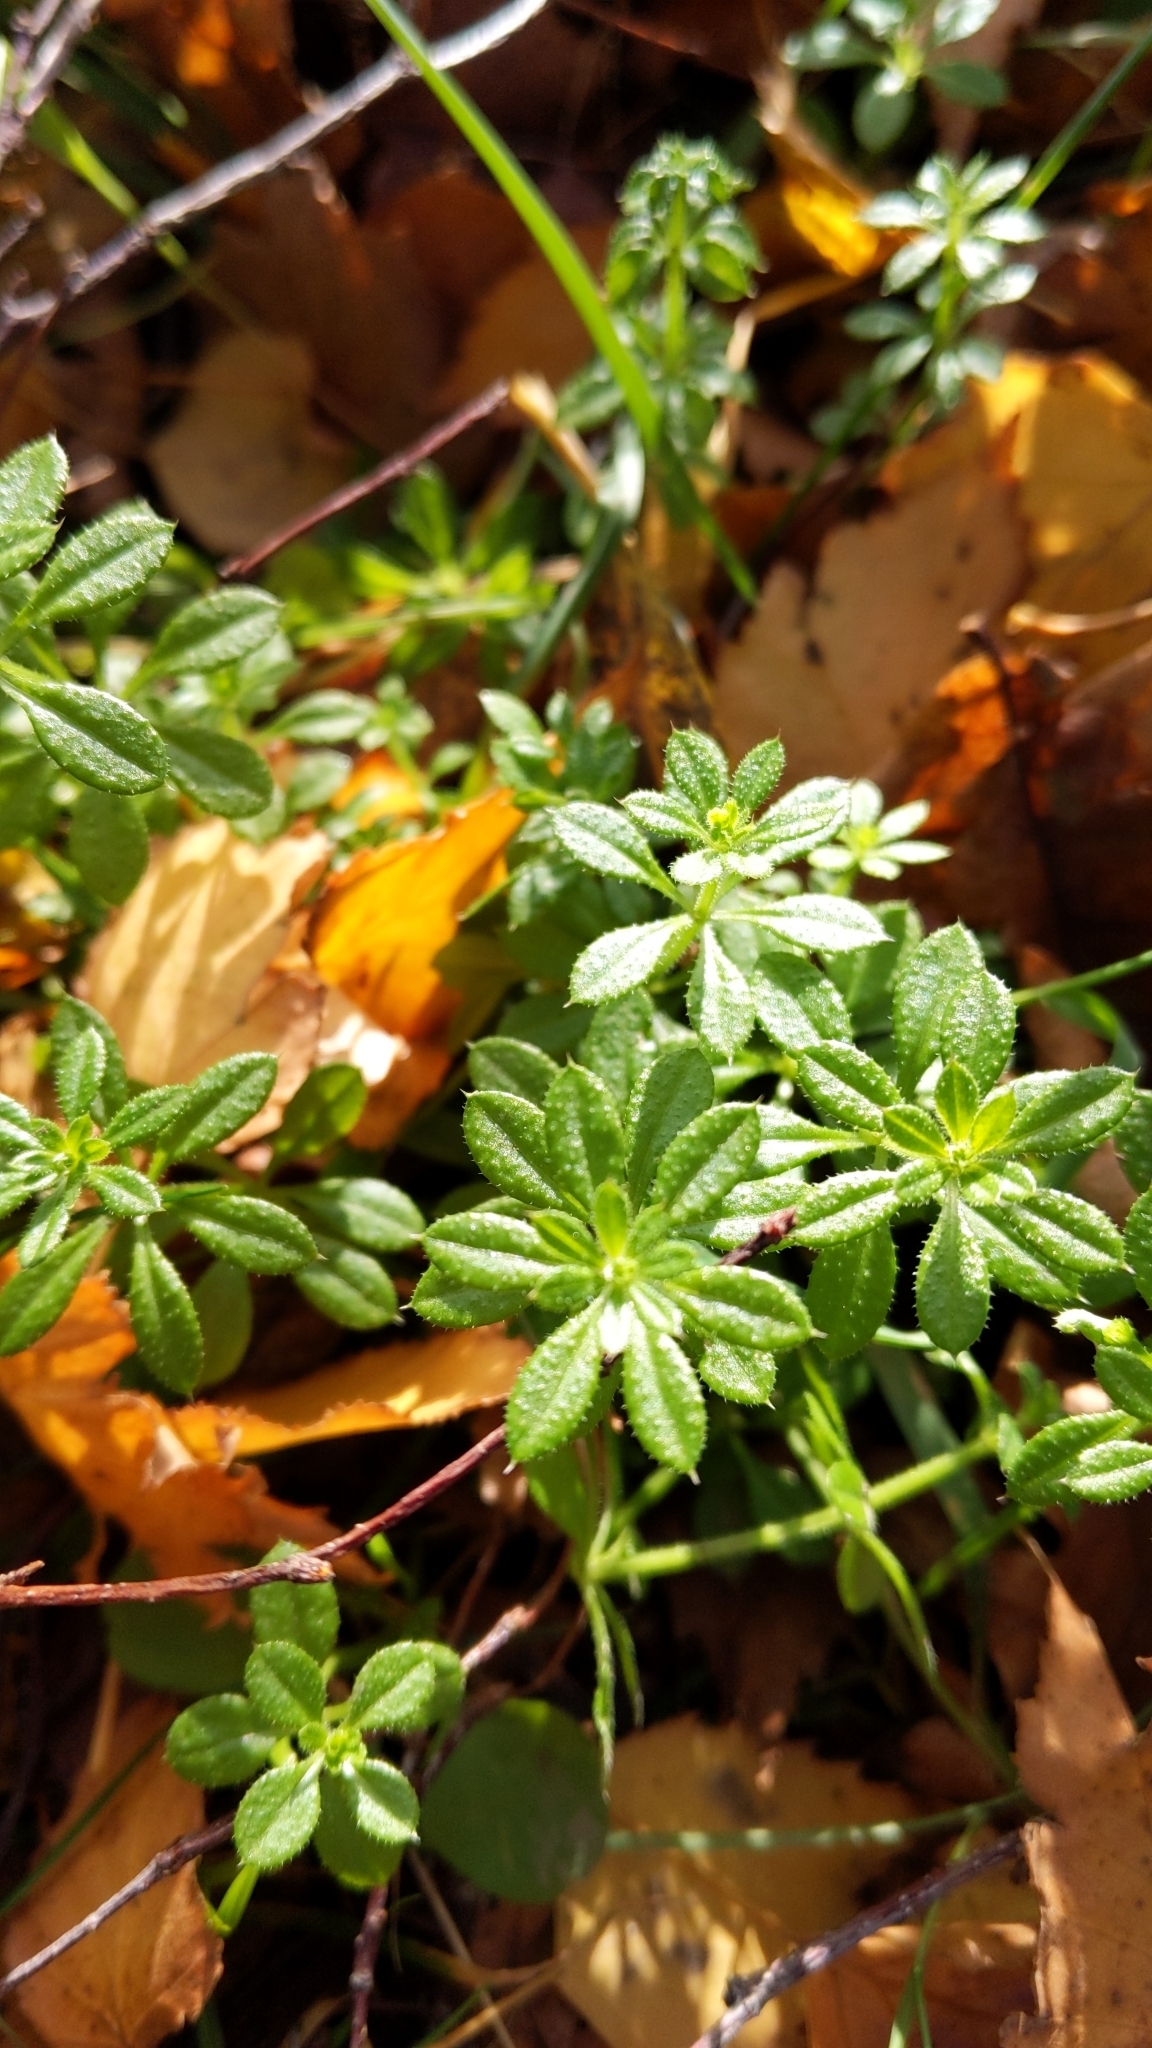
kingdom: Plantae
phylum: Tracheophyta
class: Magnoliopsida
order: Gentianales
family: Rubiaceae
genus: Galium
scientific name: Galium aparine
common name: Cleavers
